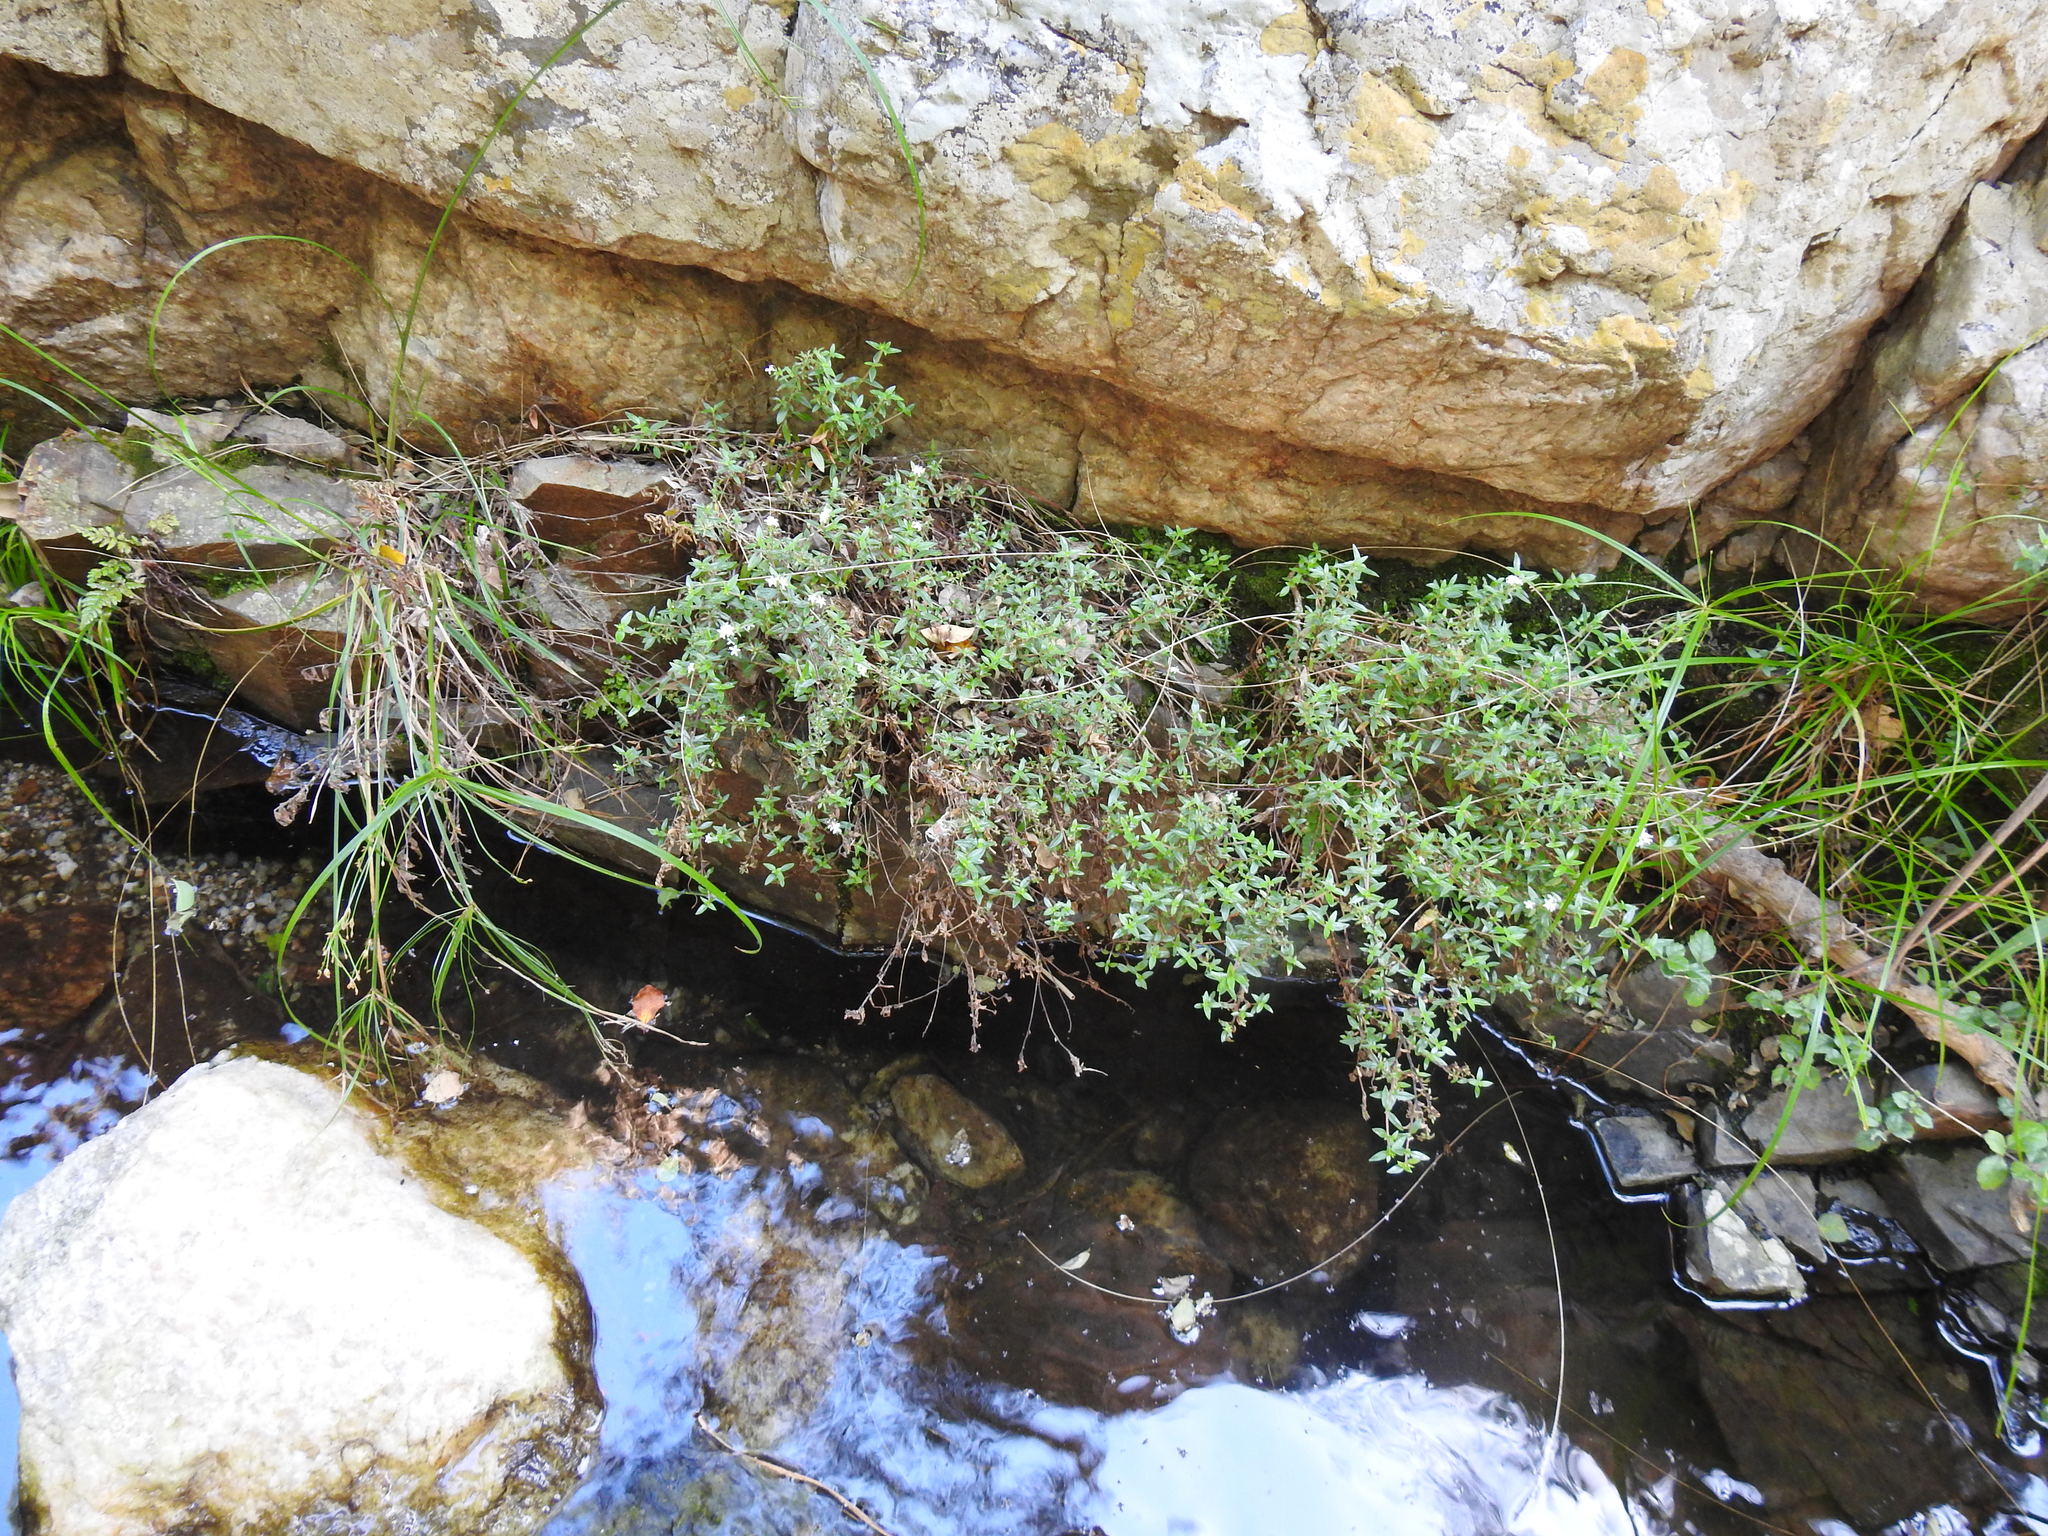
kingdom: Plantae
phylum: Tracheophyta
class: Magnoliopsida
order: Gentianales
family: Rubiaceae
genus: Otiophora
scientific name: Otiophora calycophylla
